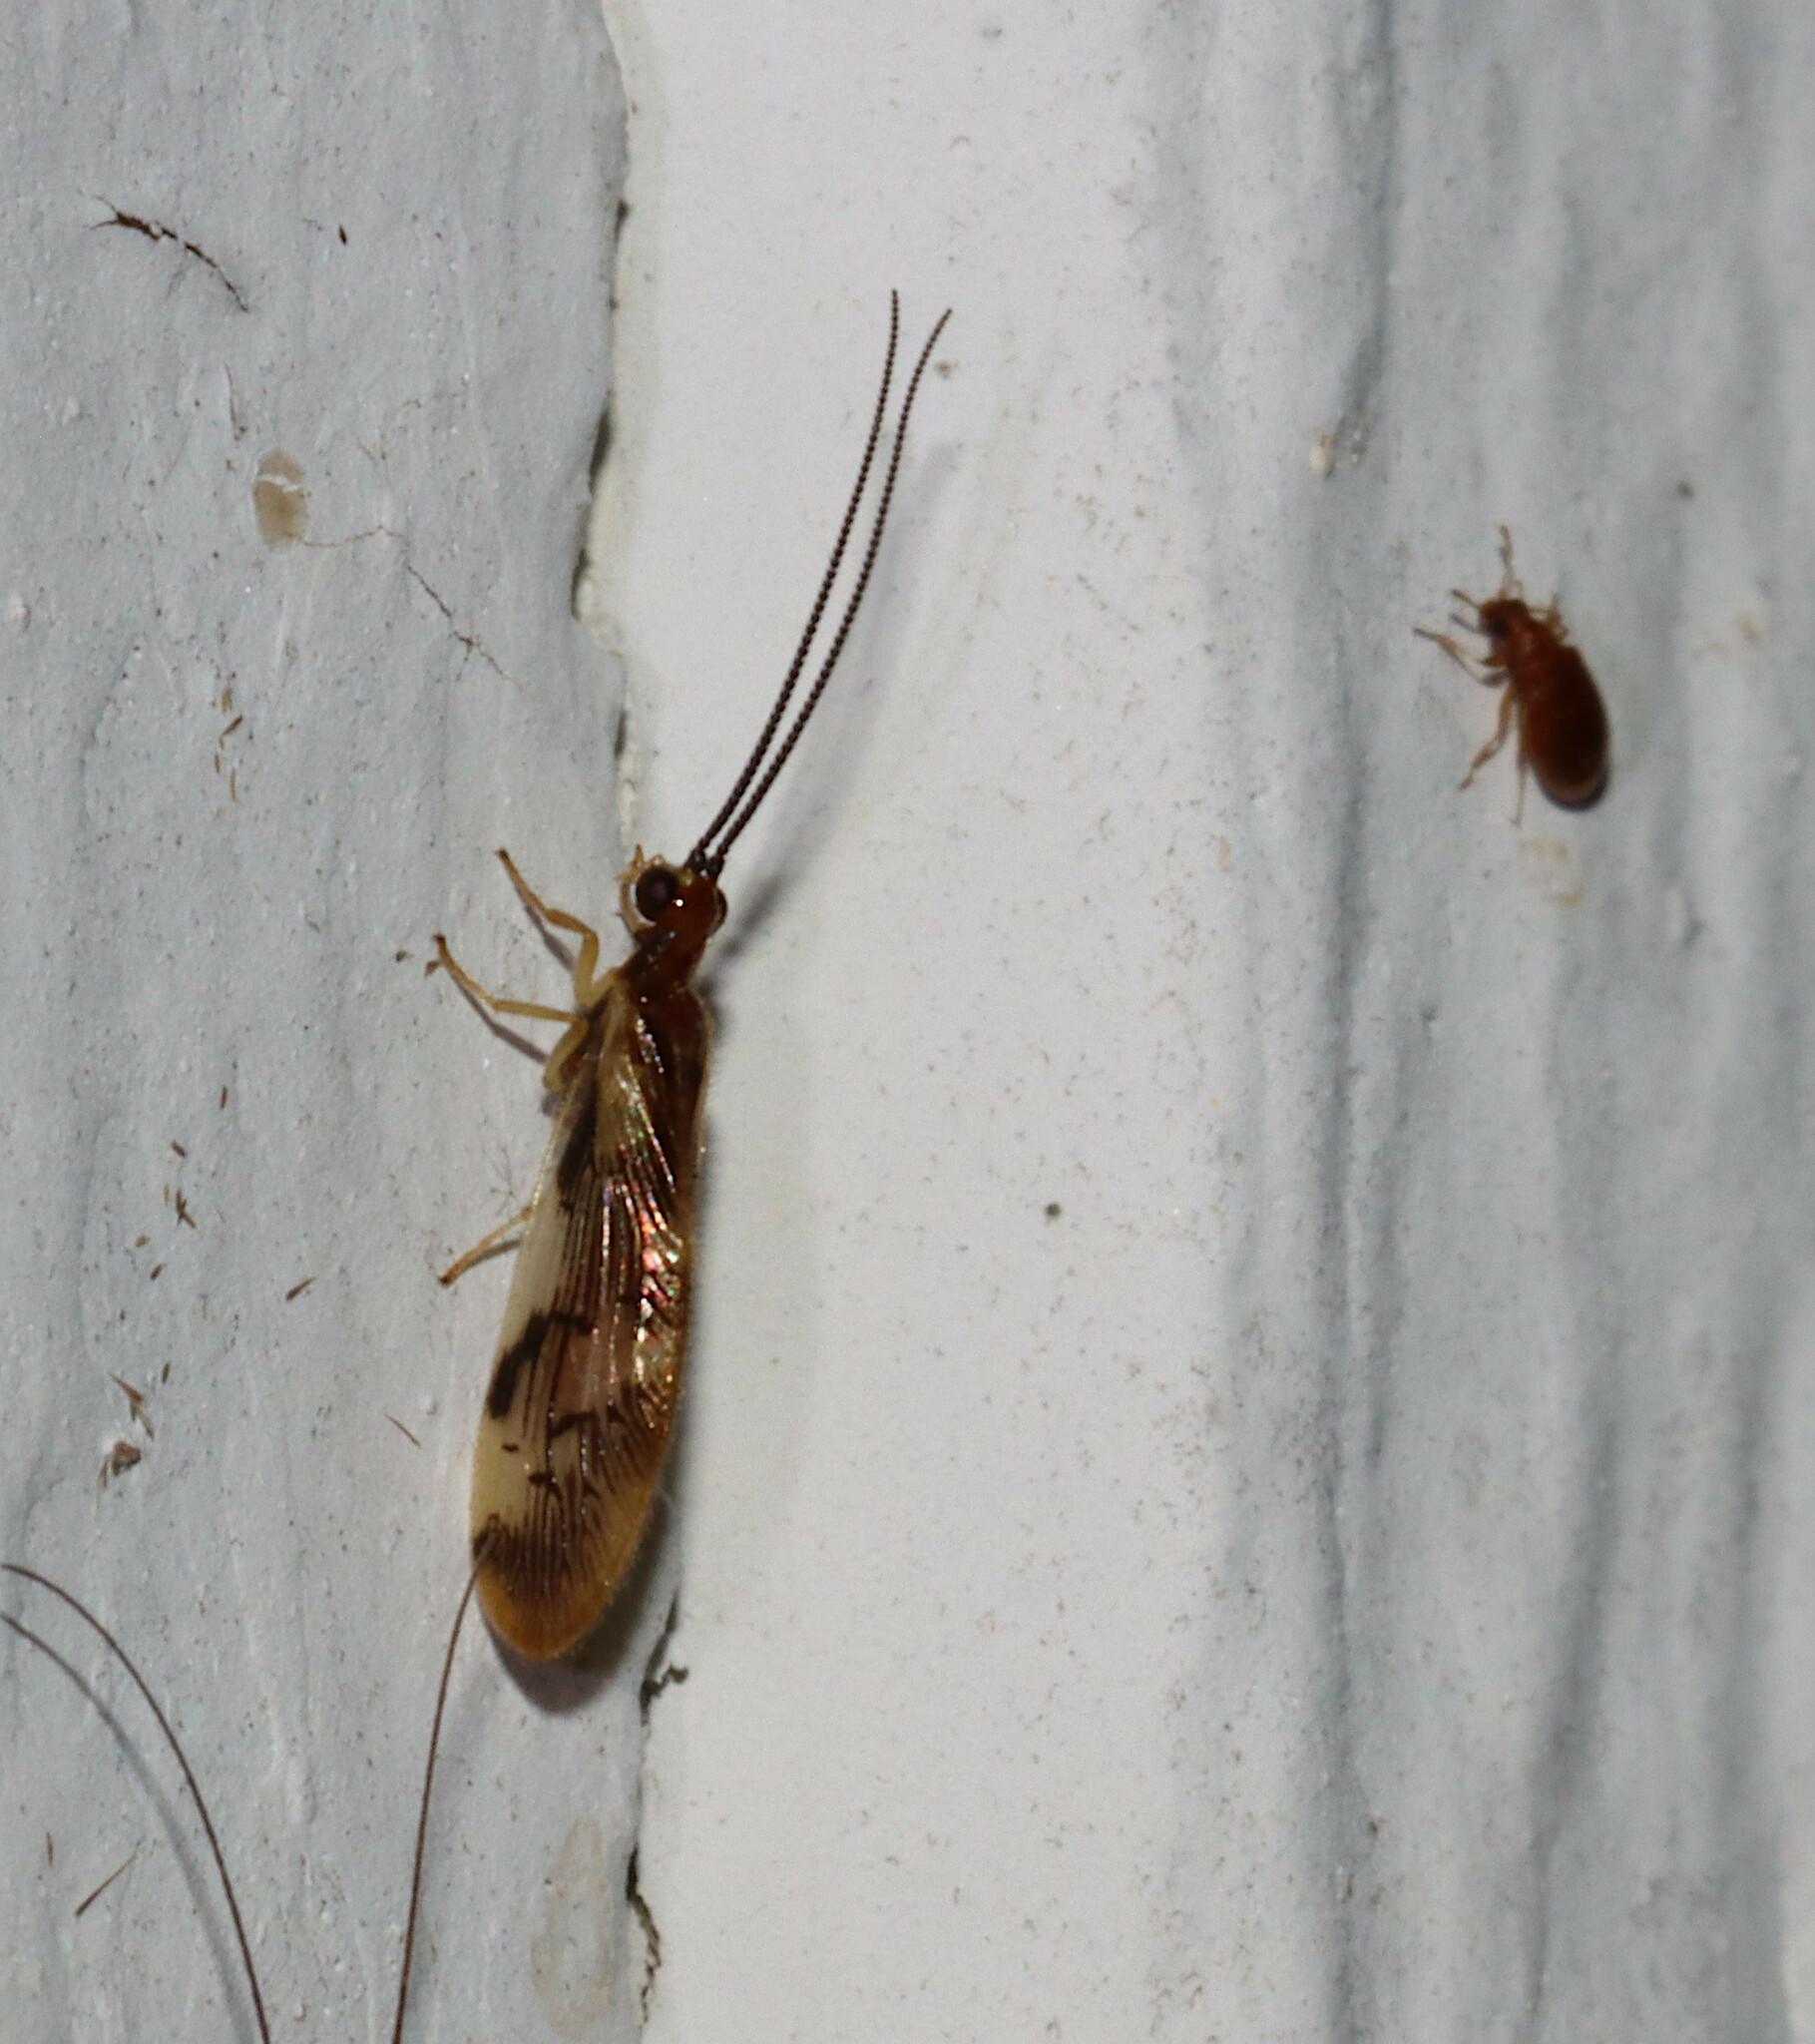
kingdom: Animalia
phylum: Arthropoda
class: Insecta
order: Neuroptera
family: Sisyridae
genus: Climacia
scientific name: Climacia areolaris
